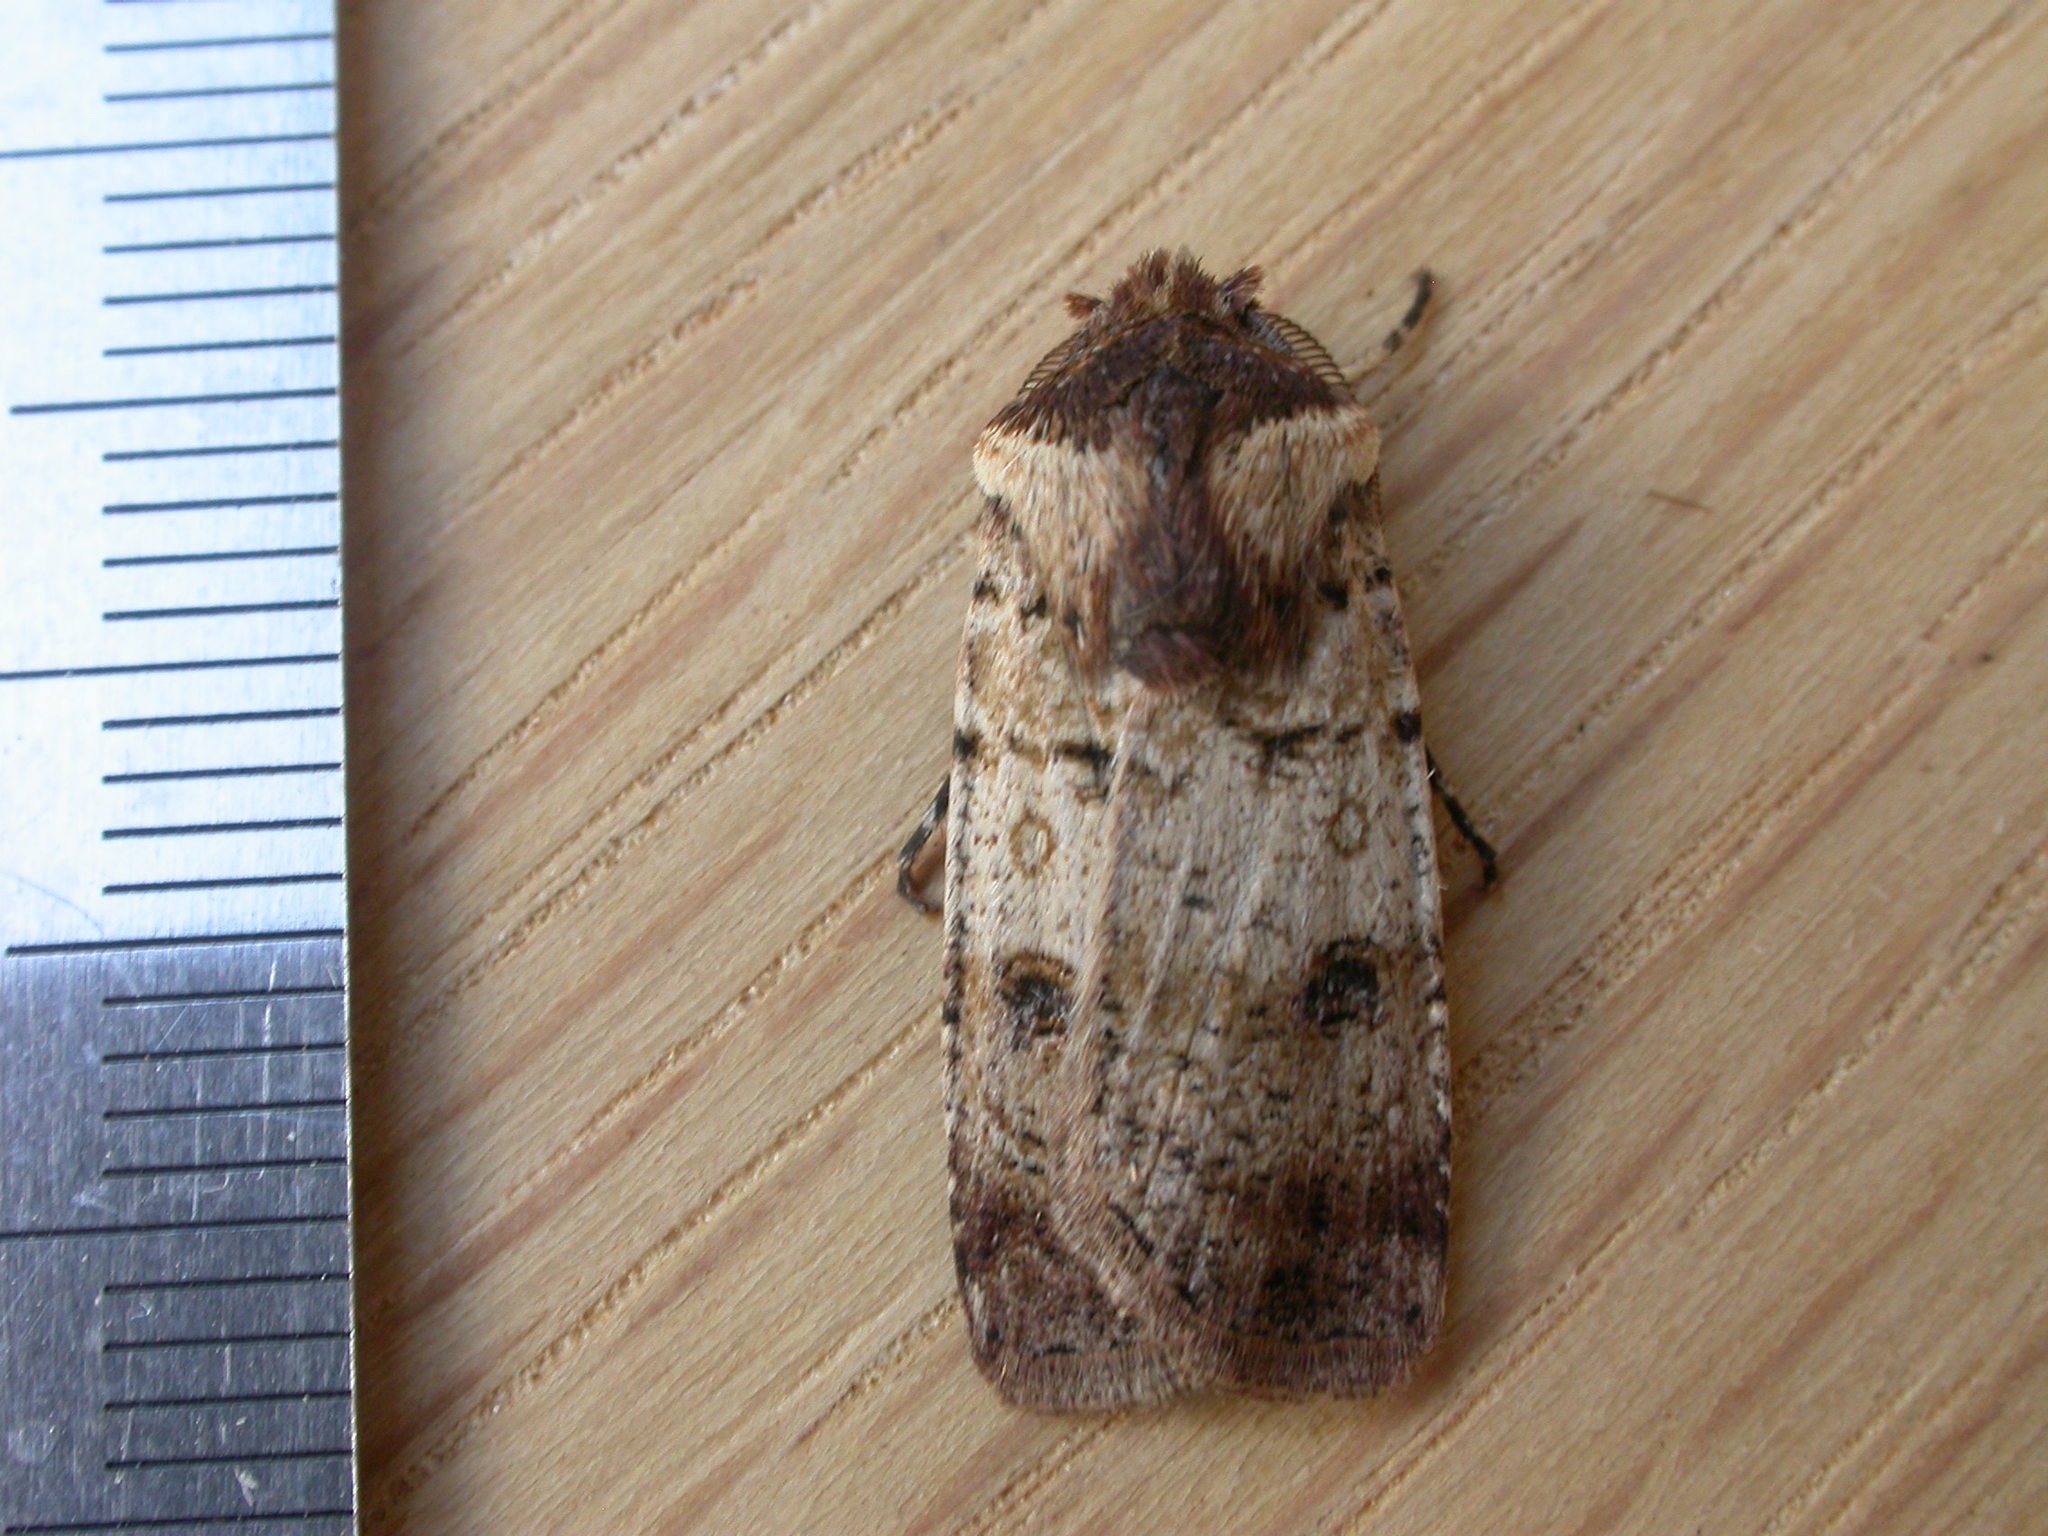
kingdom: Animalia
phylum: Arthropoda
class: Insecta
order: Lepidoptera
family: Noctuidae
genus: Agrotis
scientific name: Agrotis porphyricollis
